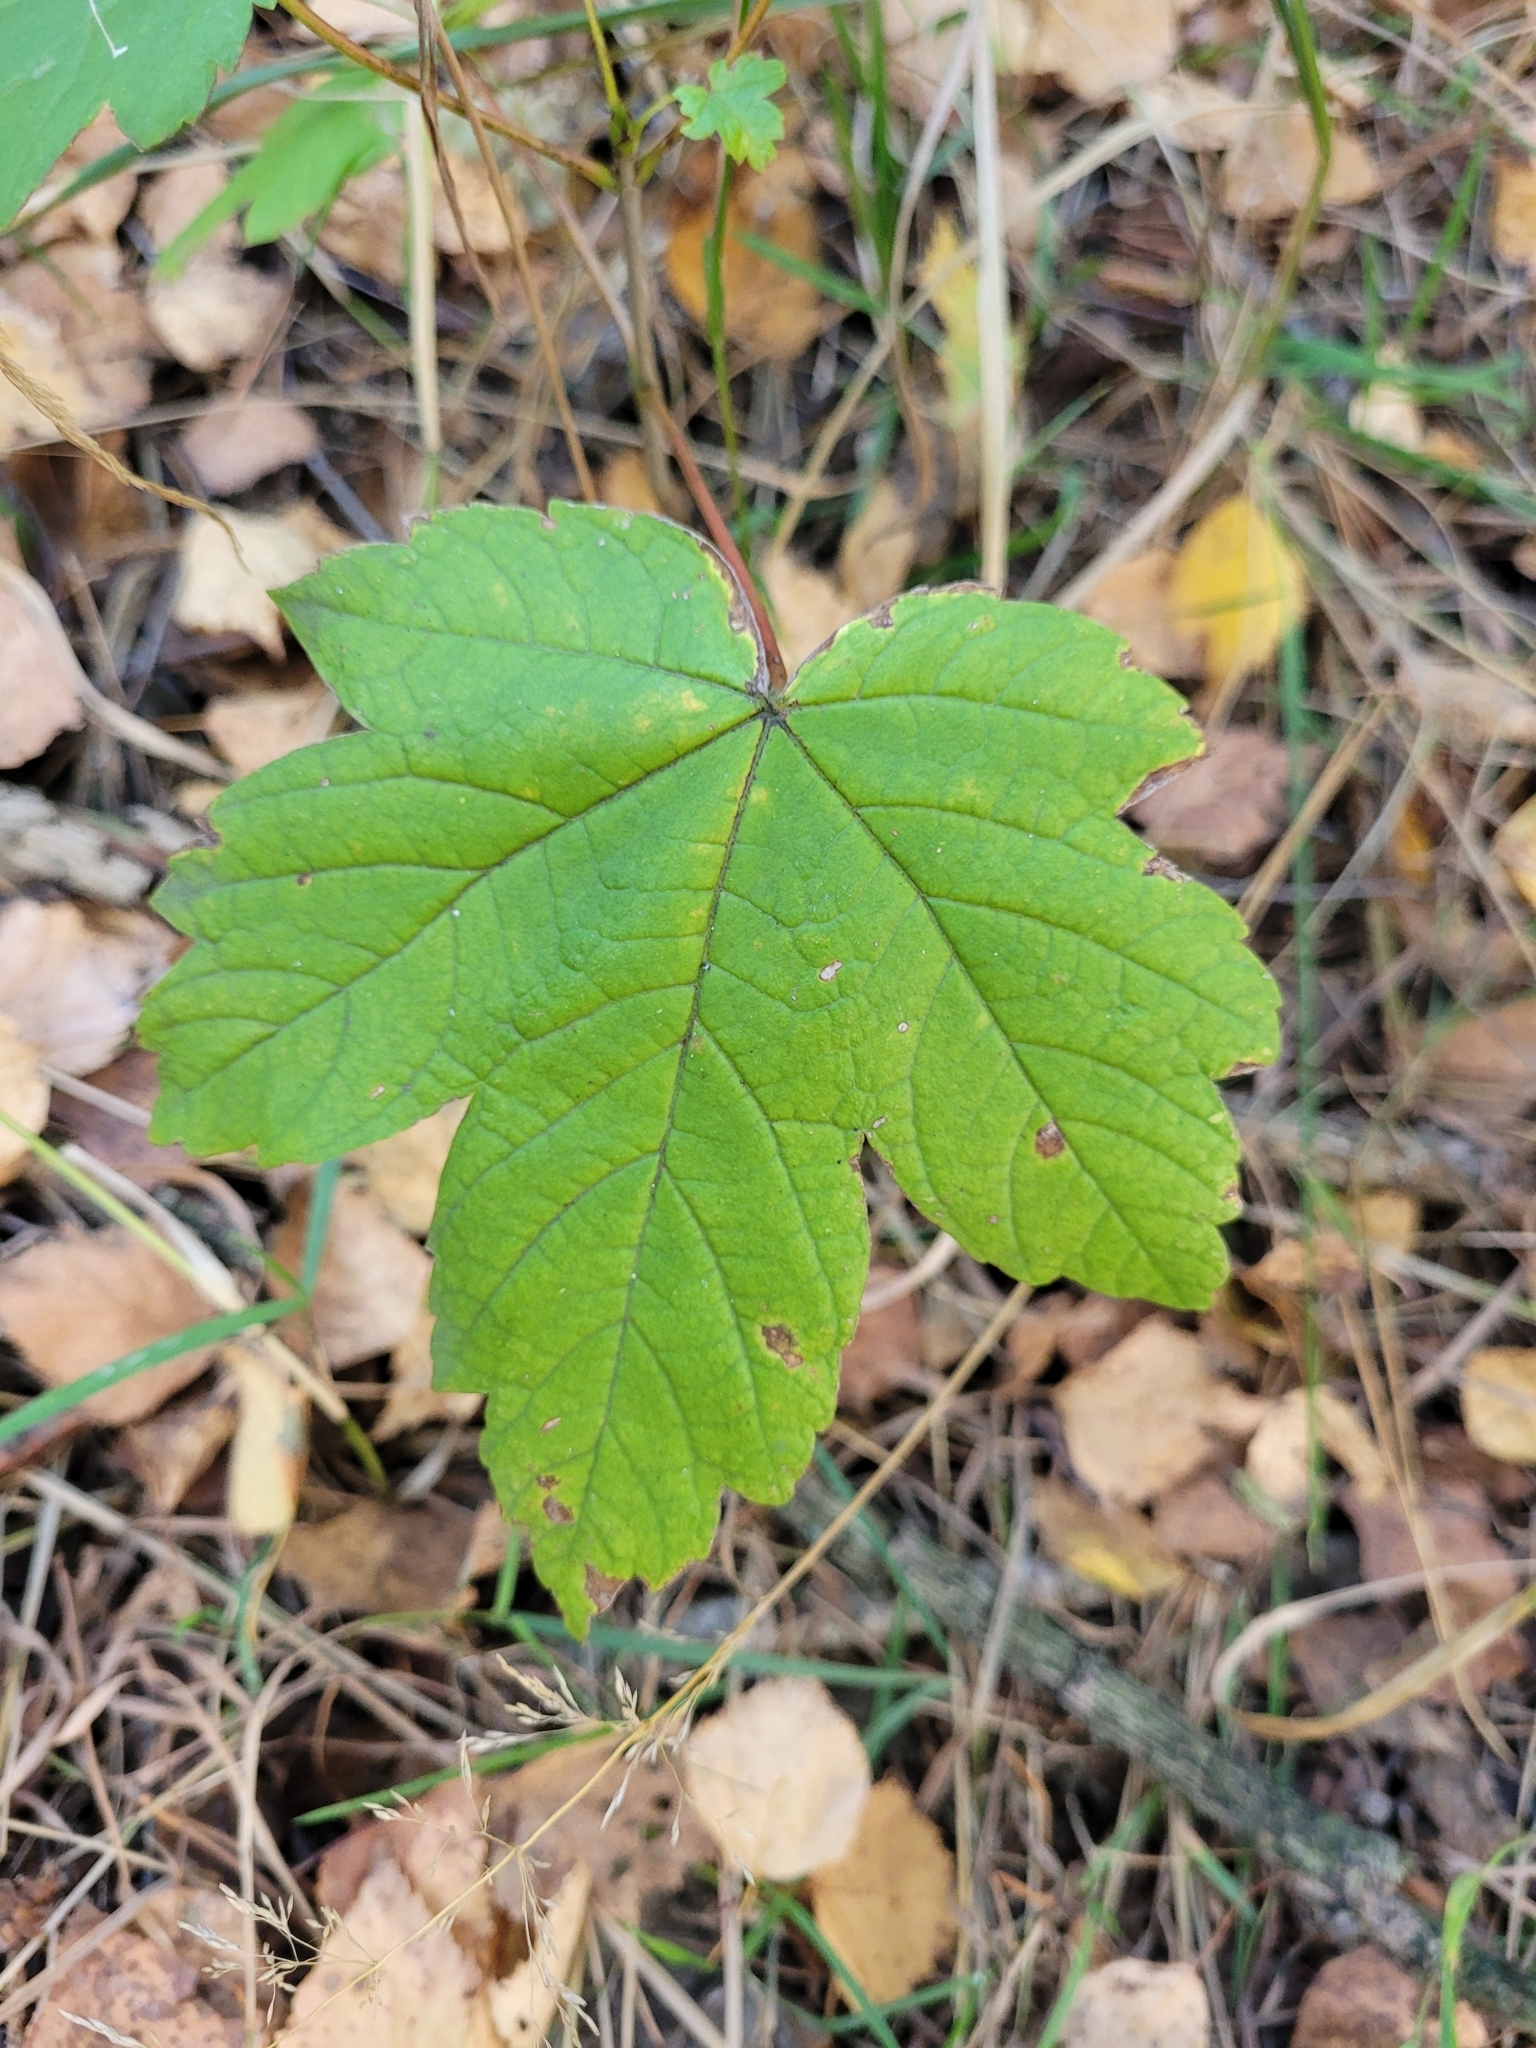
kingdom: Plantae
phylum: Tracheophyta
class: Magnoliopsida
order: Sapindales
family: Sapindaceae
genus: Acer
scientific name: Acer pseudoplatanus
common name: Sycamore
